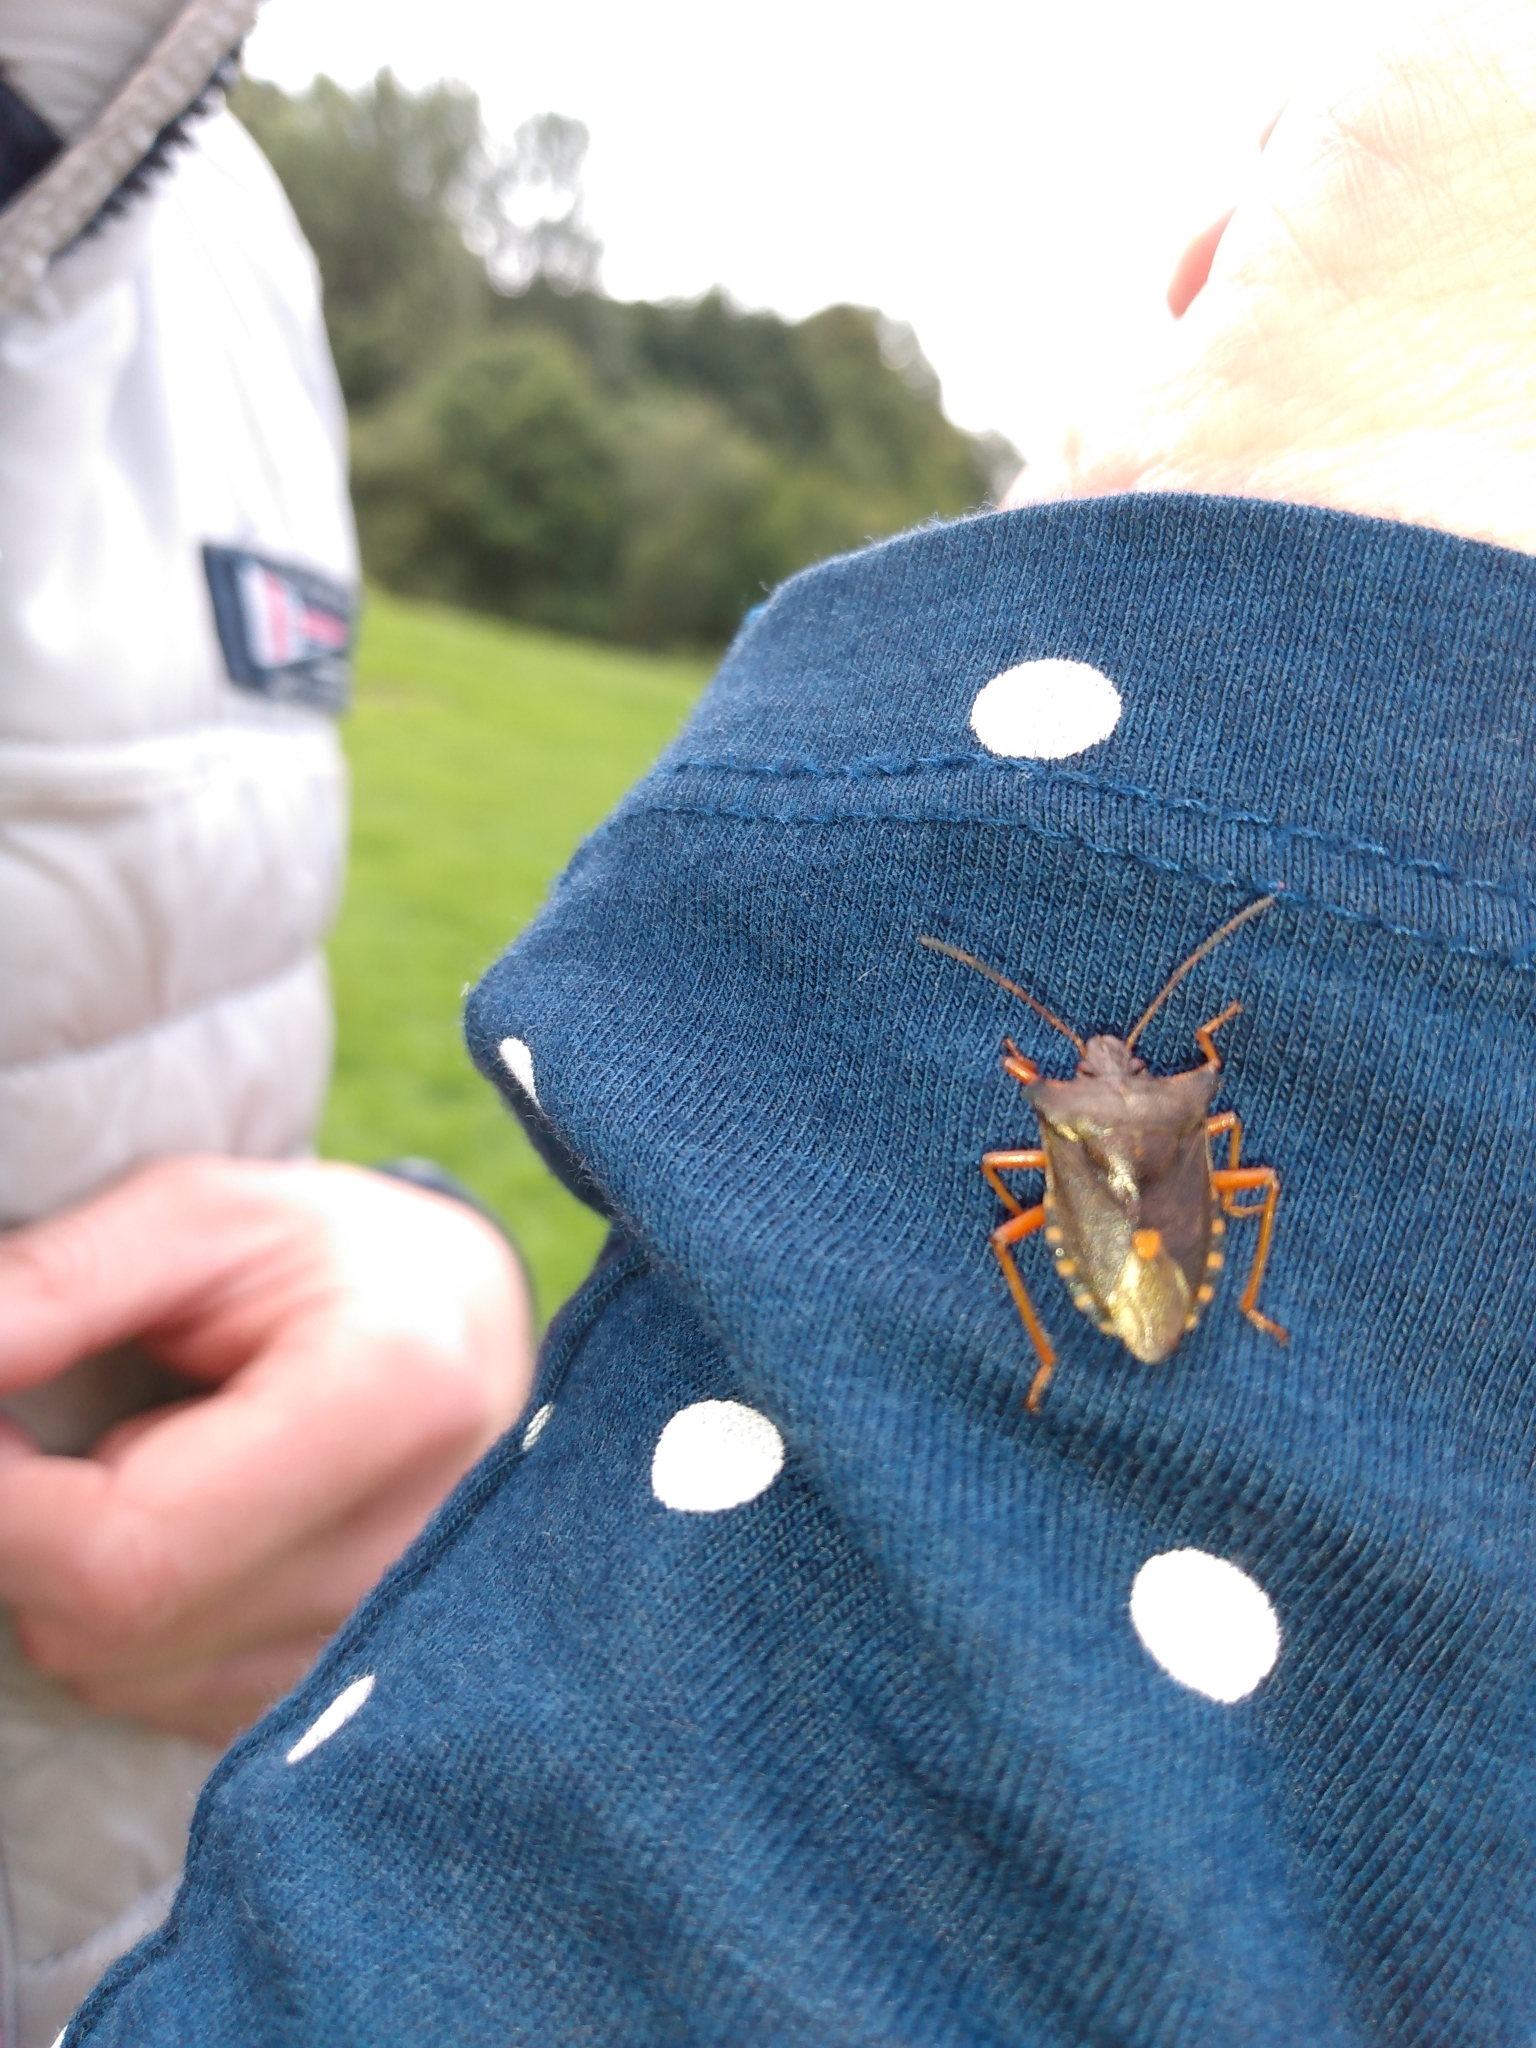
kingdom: Animalia
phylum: Arthropoda
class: Insecta
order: Hemiptera
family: Pentatomidae
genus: Pentatoma
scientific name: Pentatoma rufipes
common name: Forest bug
